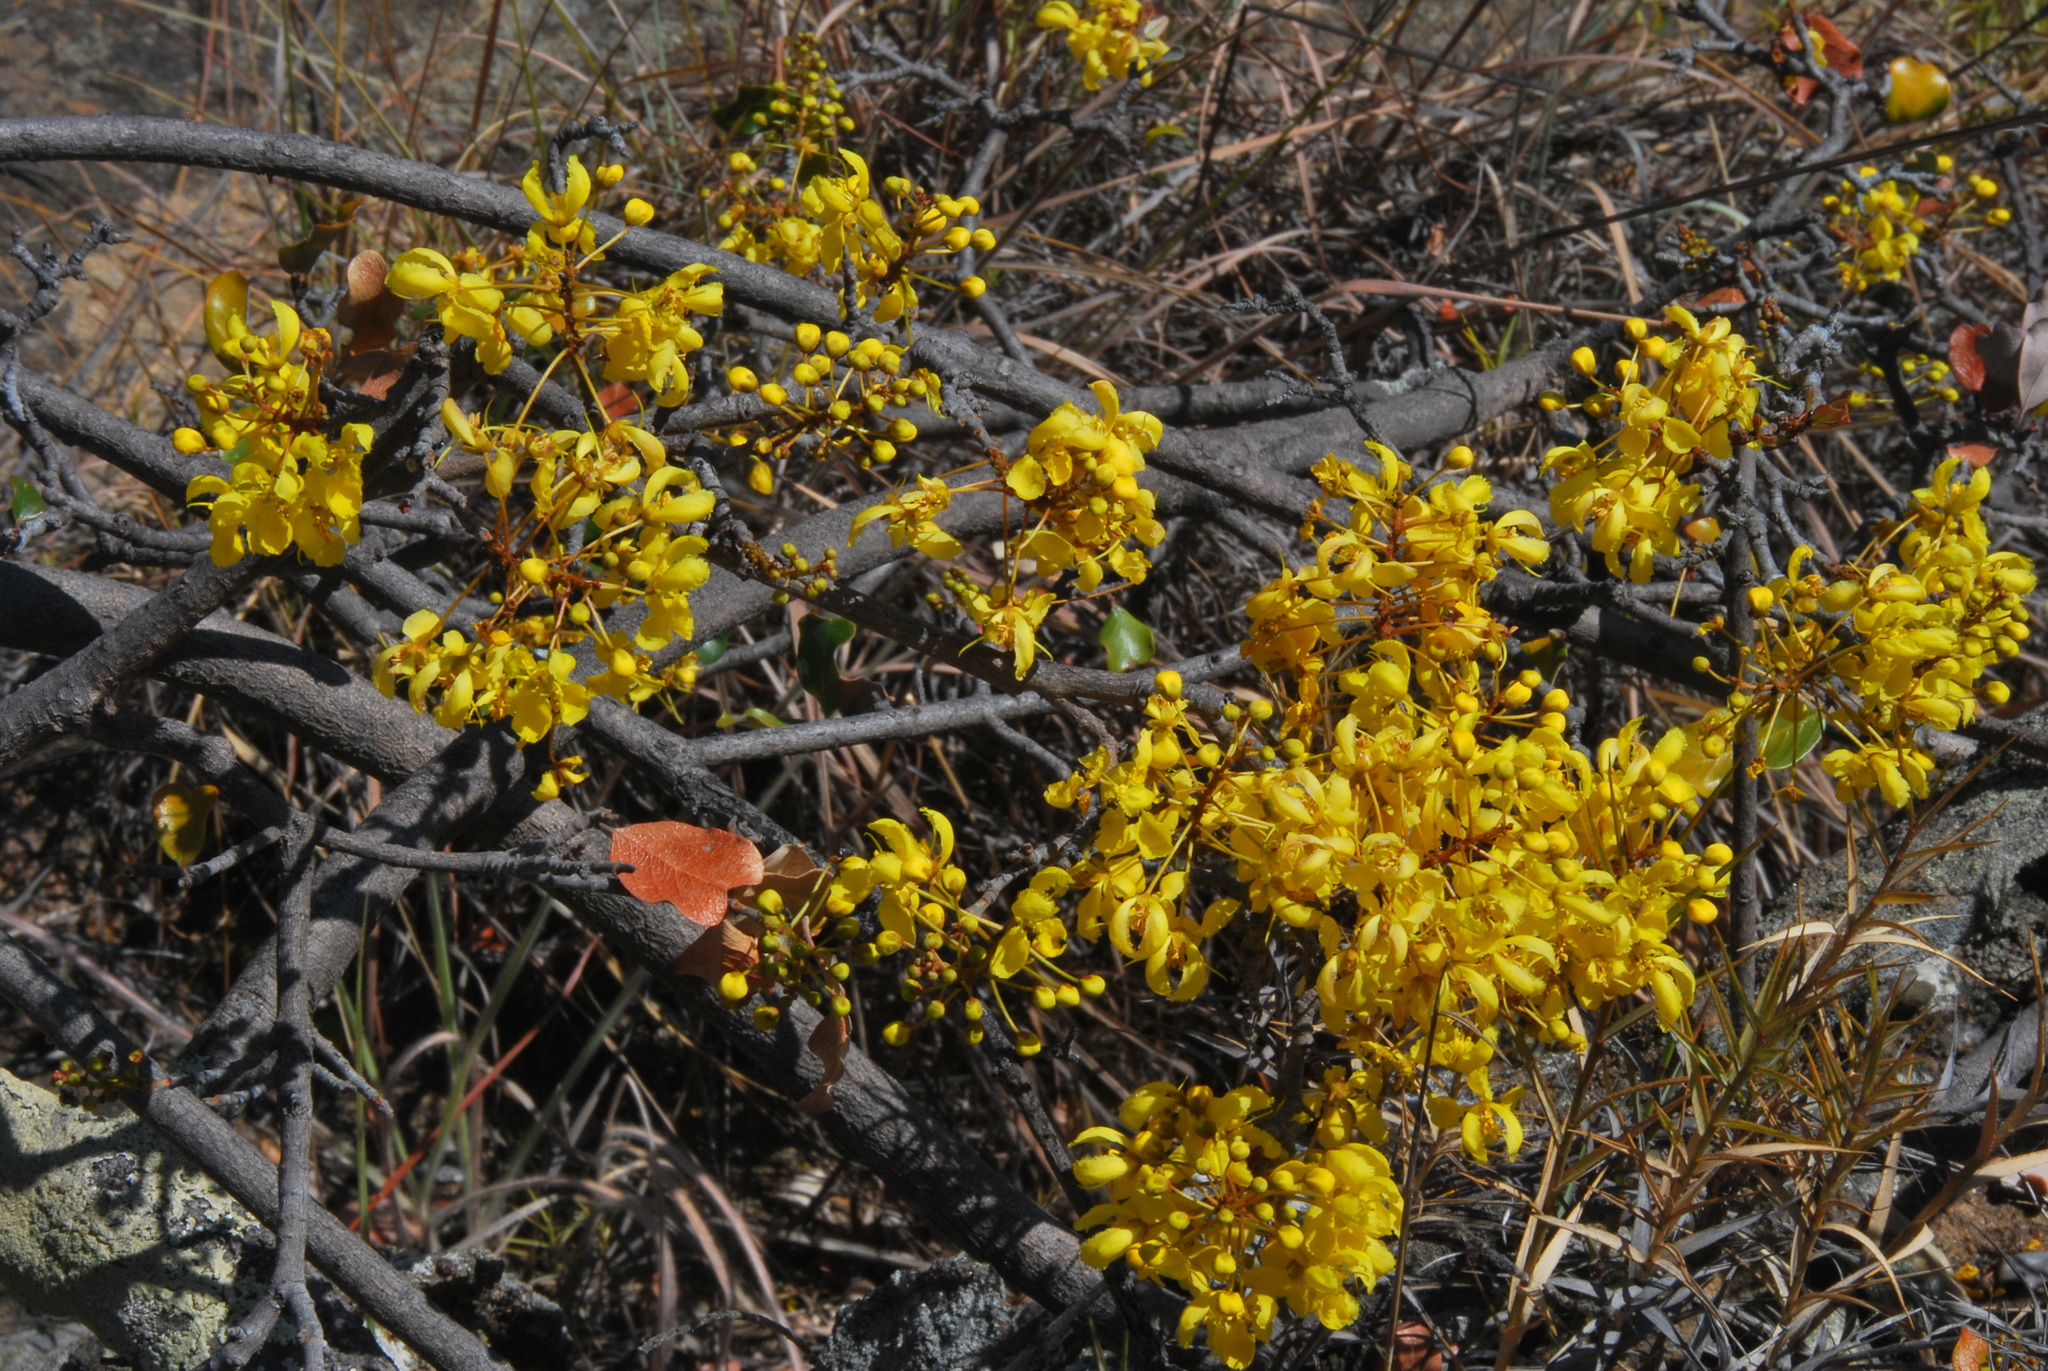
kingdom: Plantae
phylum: Tracheophyta
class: Magnoliopsida
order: Malpighiales
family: Malpighiaceae
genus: Acridocarpus
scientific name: Acridocarpus excelsus
